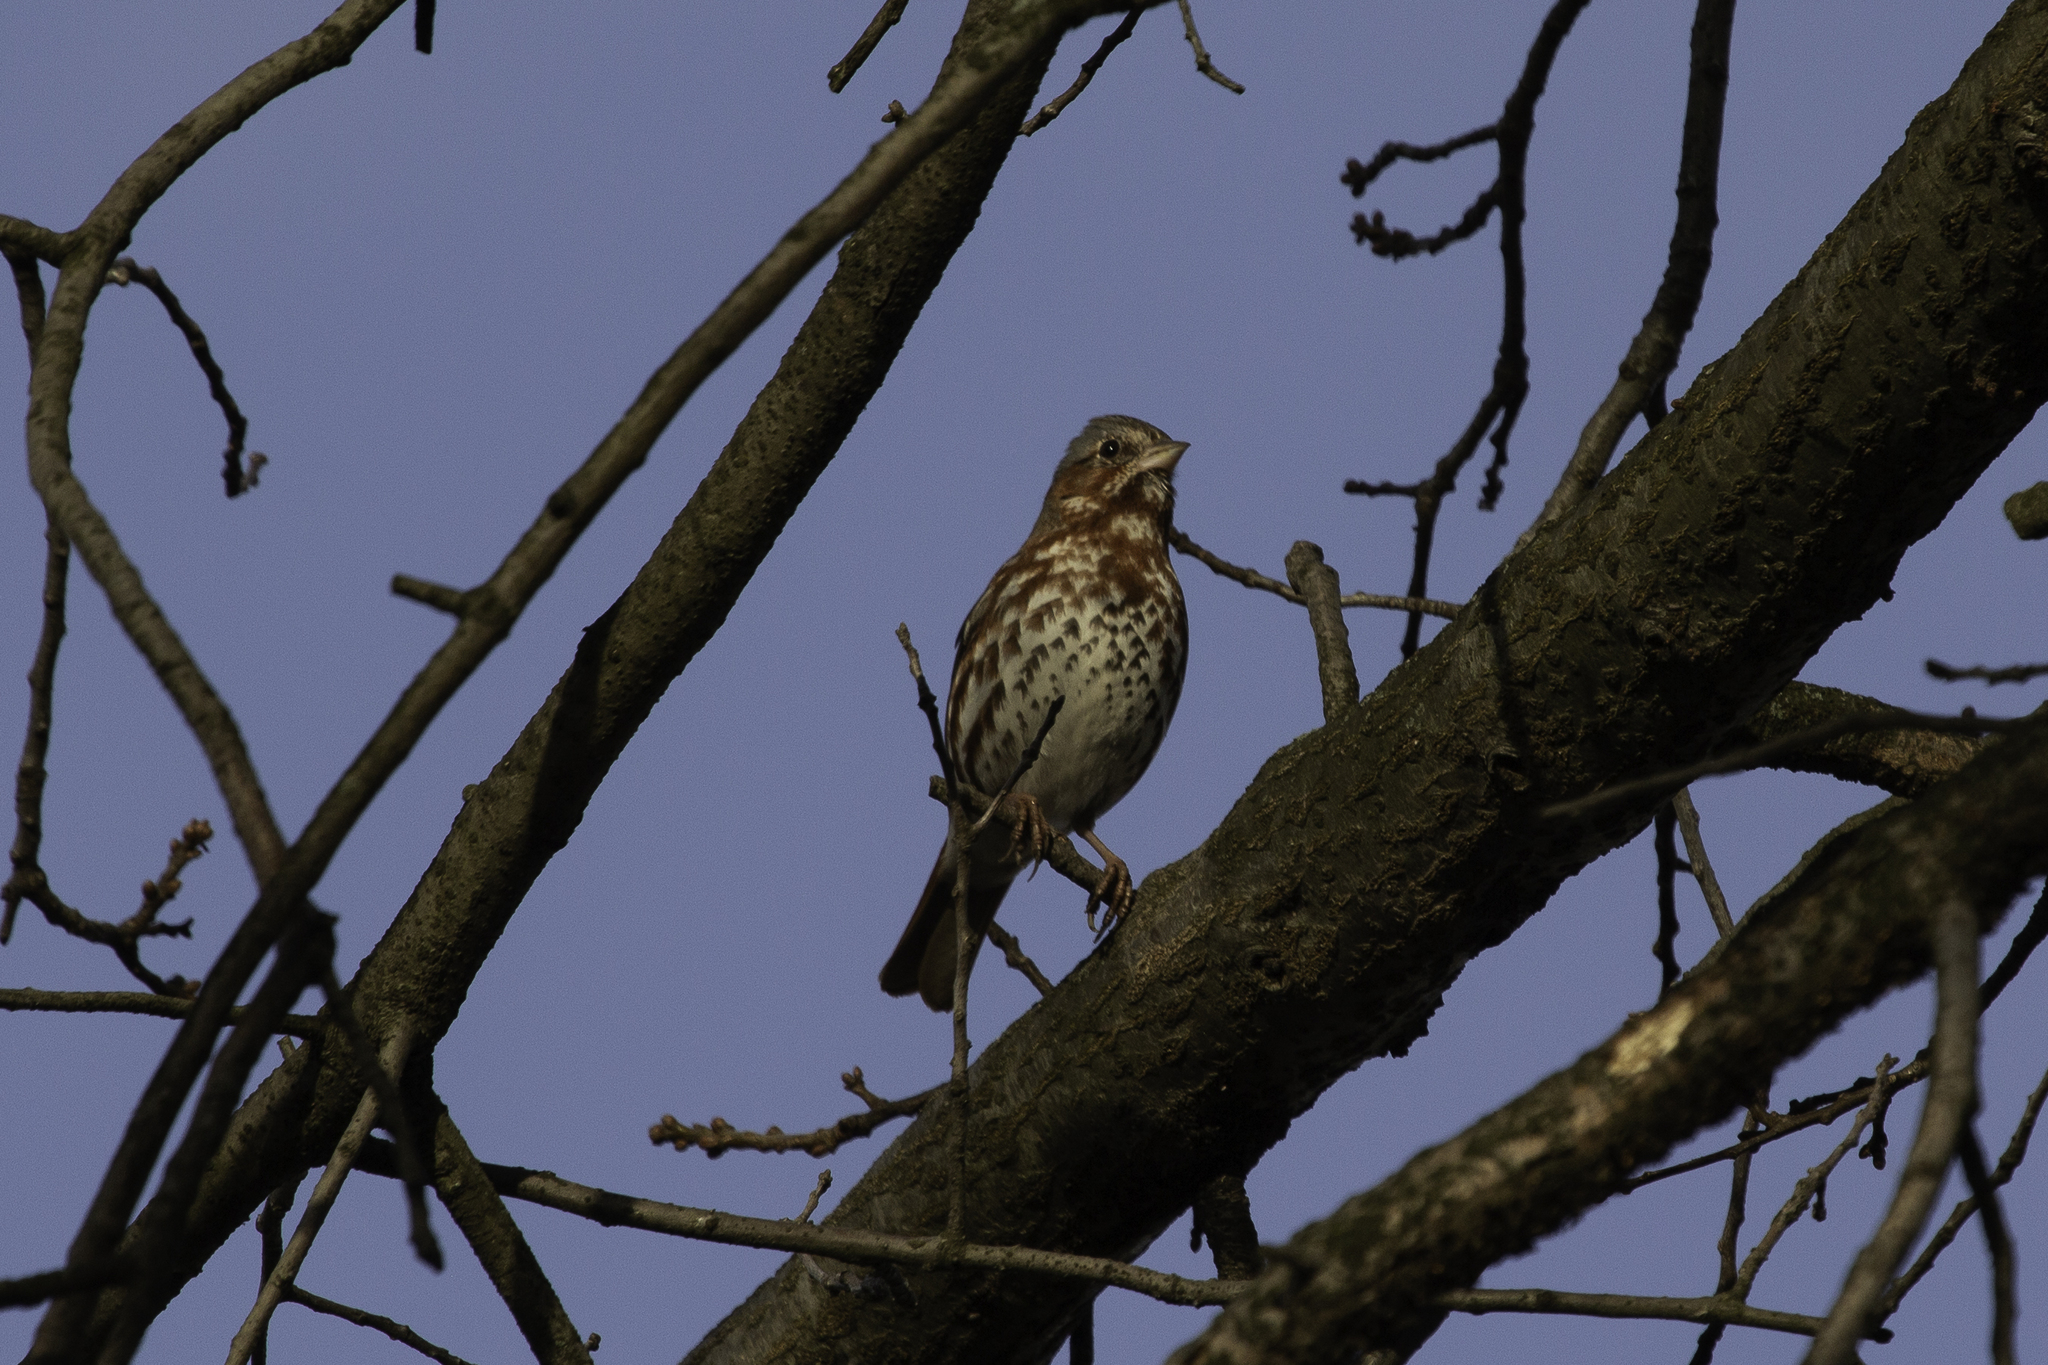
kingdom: Animalia
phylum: Chordata
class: Aves
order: Passeriformes
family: Passerellidae
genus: Passerella
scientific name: Passerella iliaca
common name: Fox sparrow
